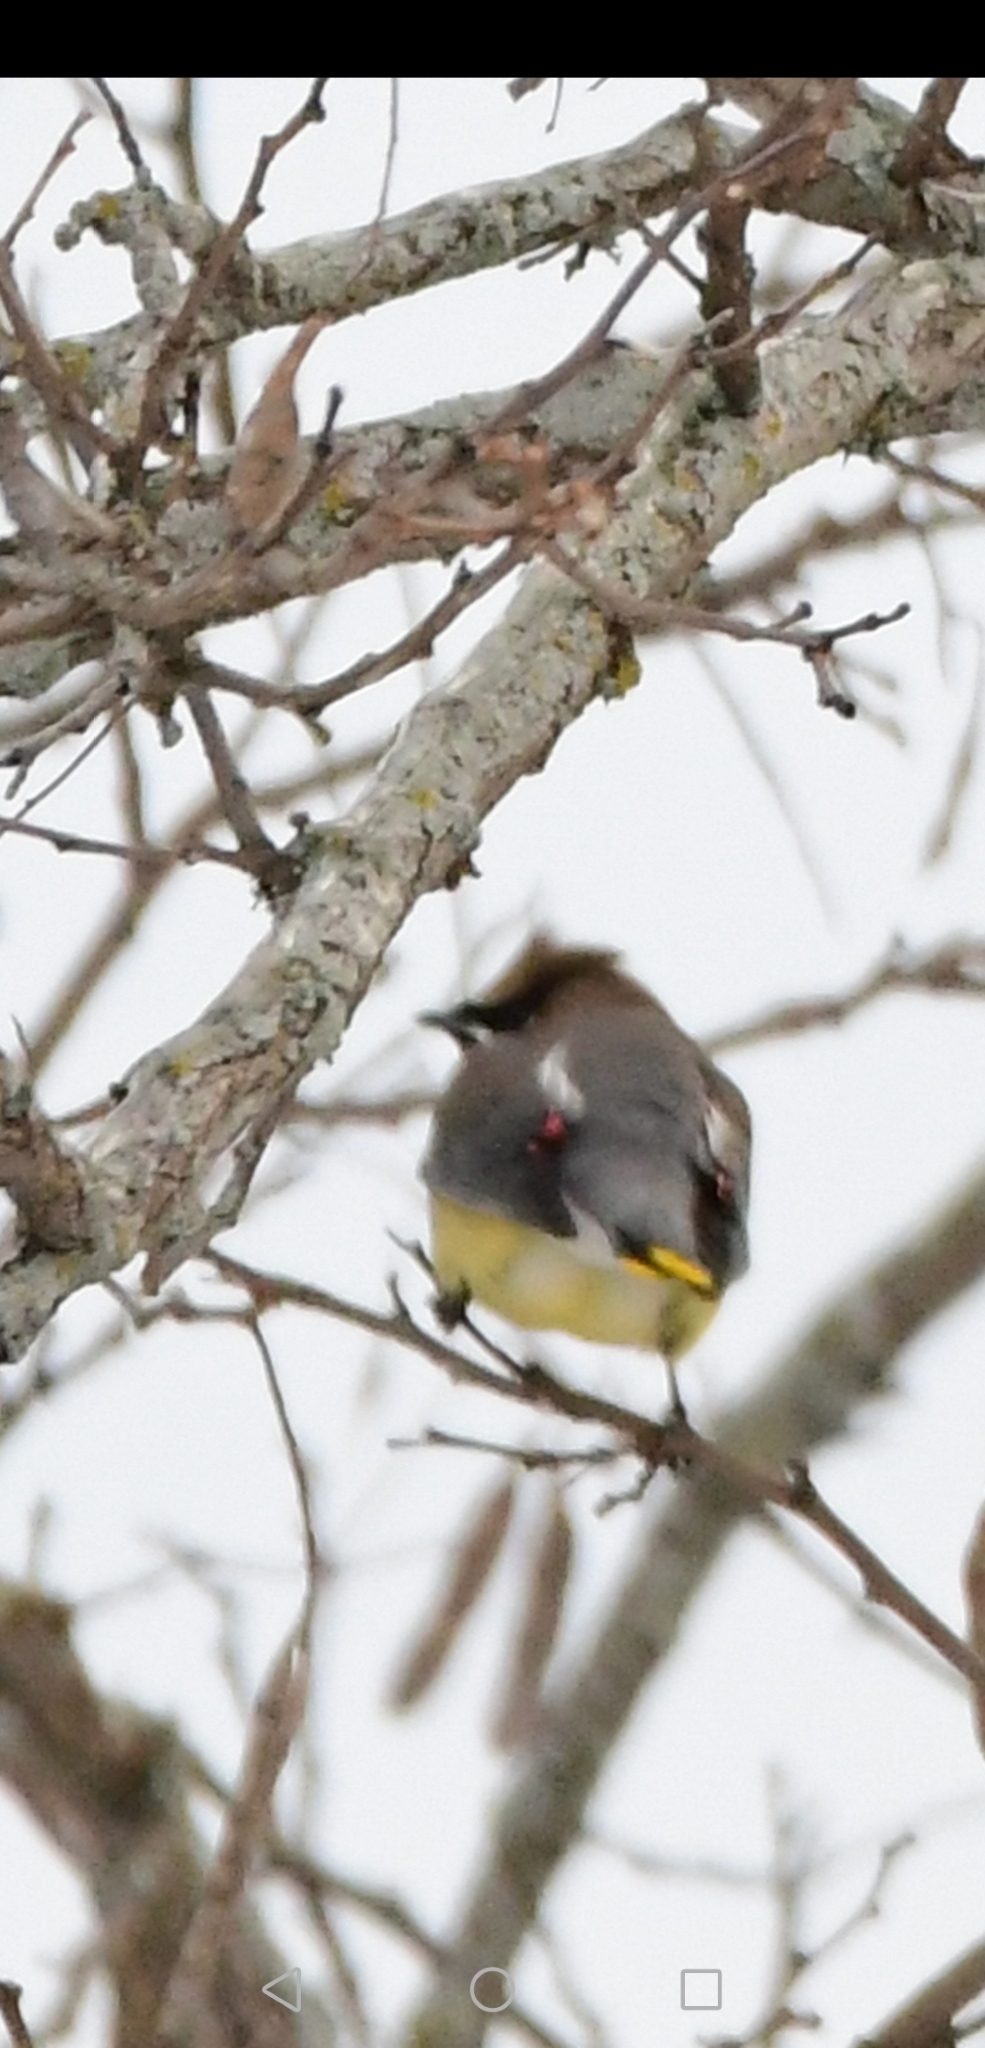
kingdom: Animalia
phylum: Chordata
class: Aves
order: Passeriformes
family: Bombycillidae
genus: Bombycilla
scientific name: Bombycilla cedrorum
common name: Cedar waxwing
